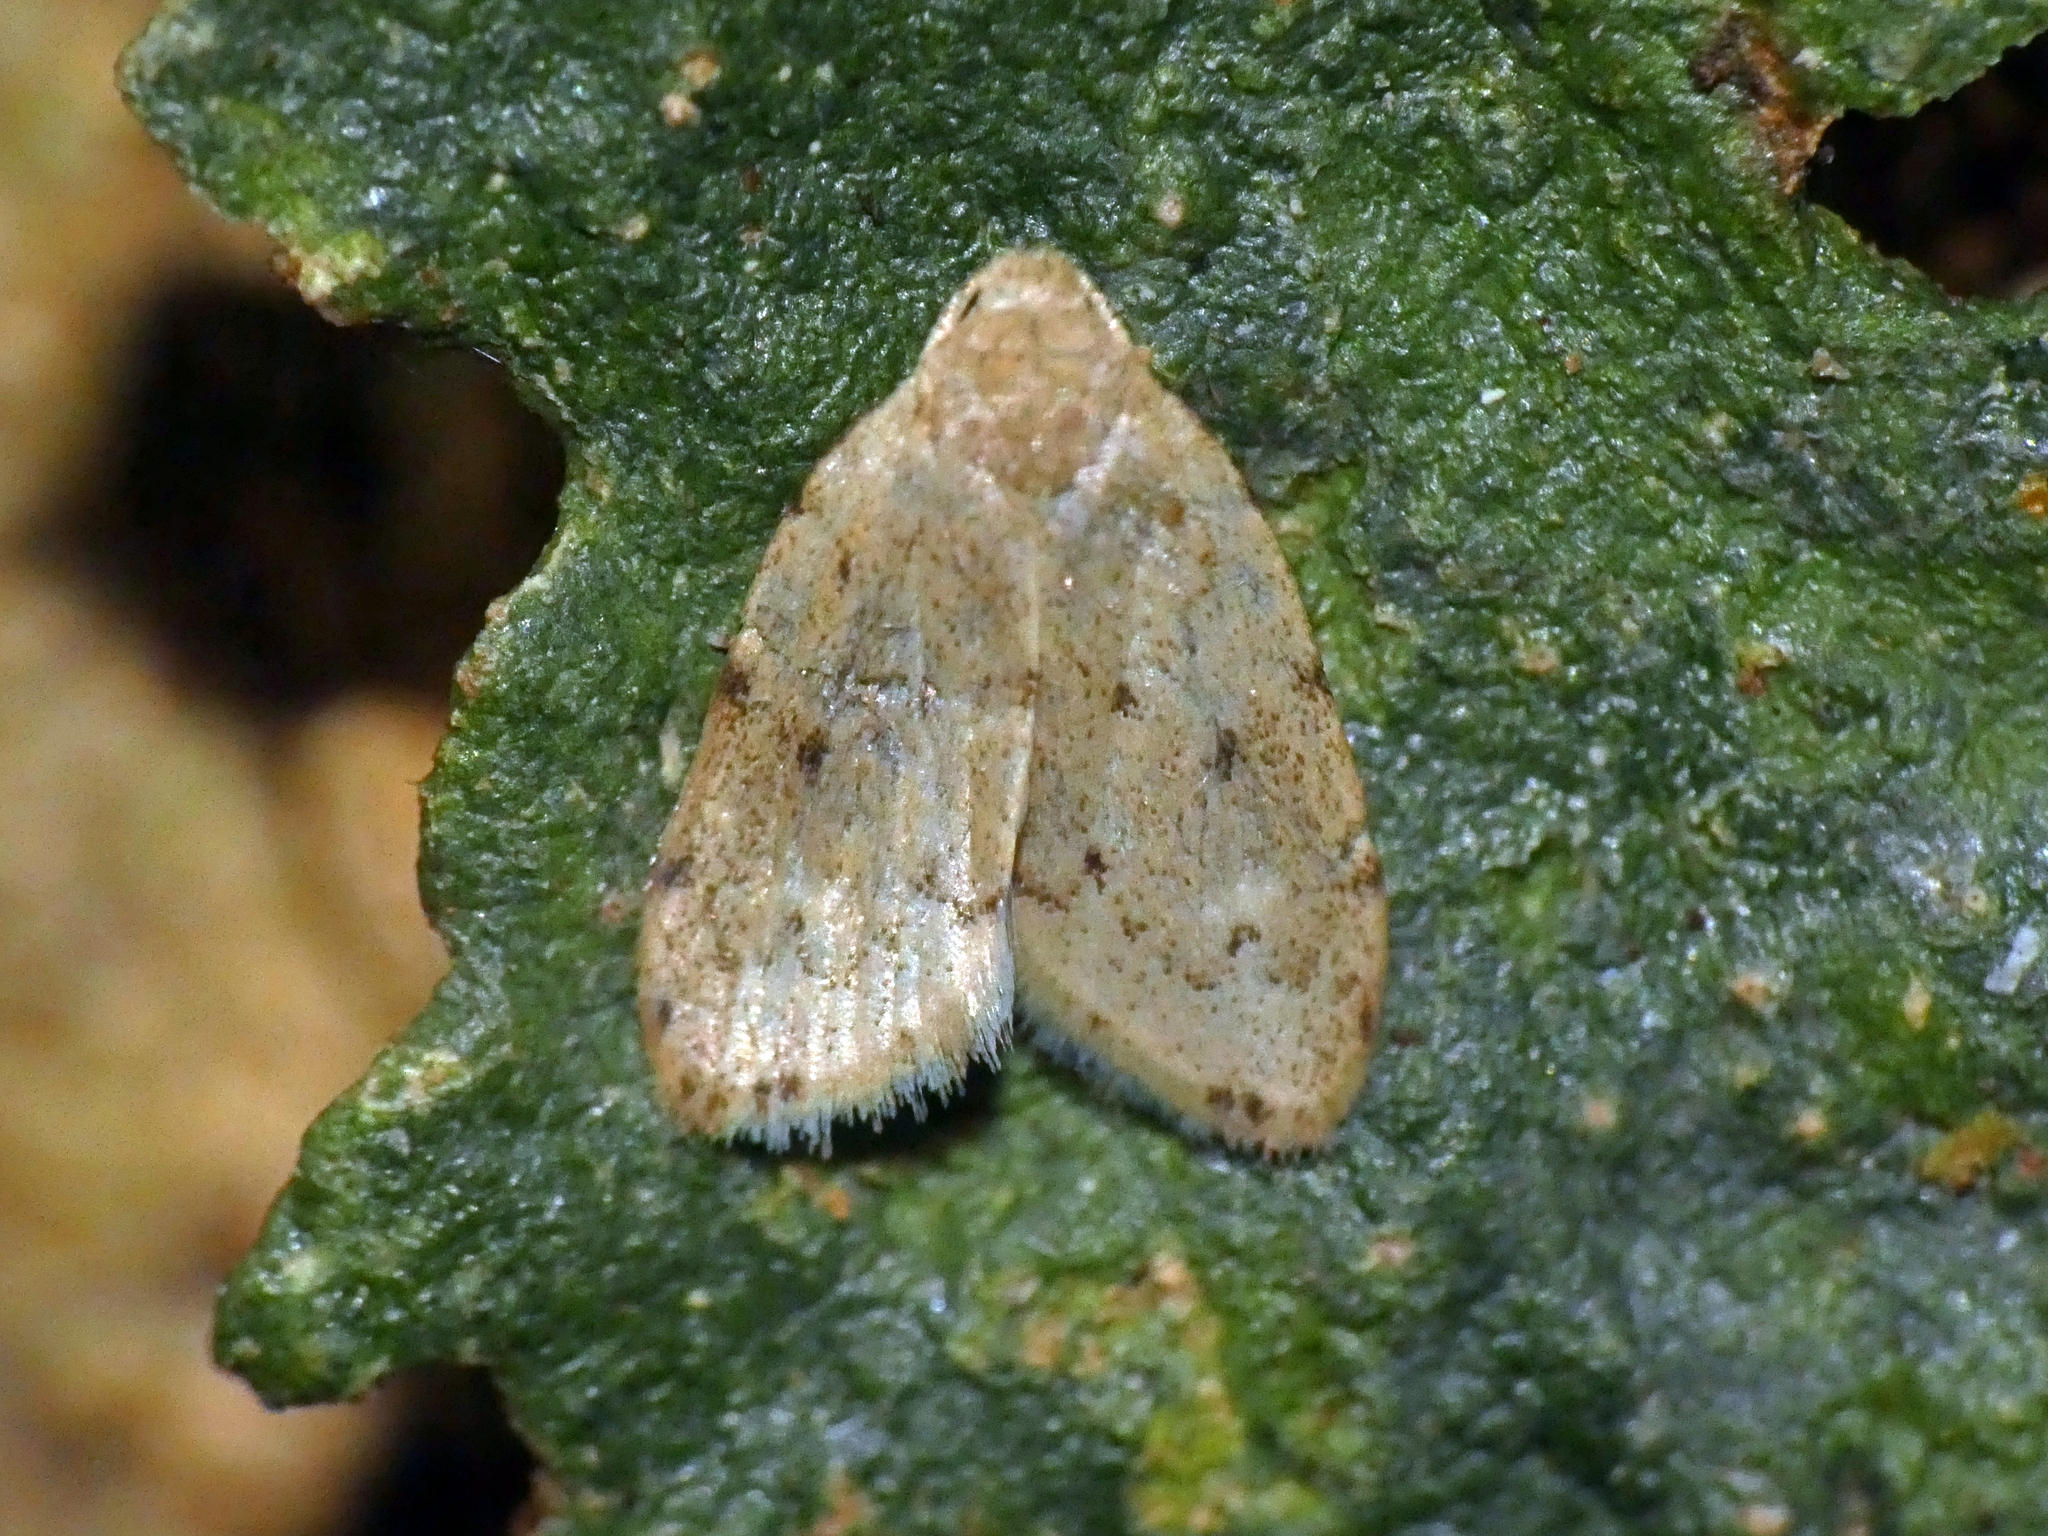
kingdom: Animalia
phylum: Arthropoda
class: Insecta
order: Lepidoptera
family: Erebidae
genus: Halone
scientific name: Halone ebaea
